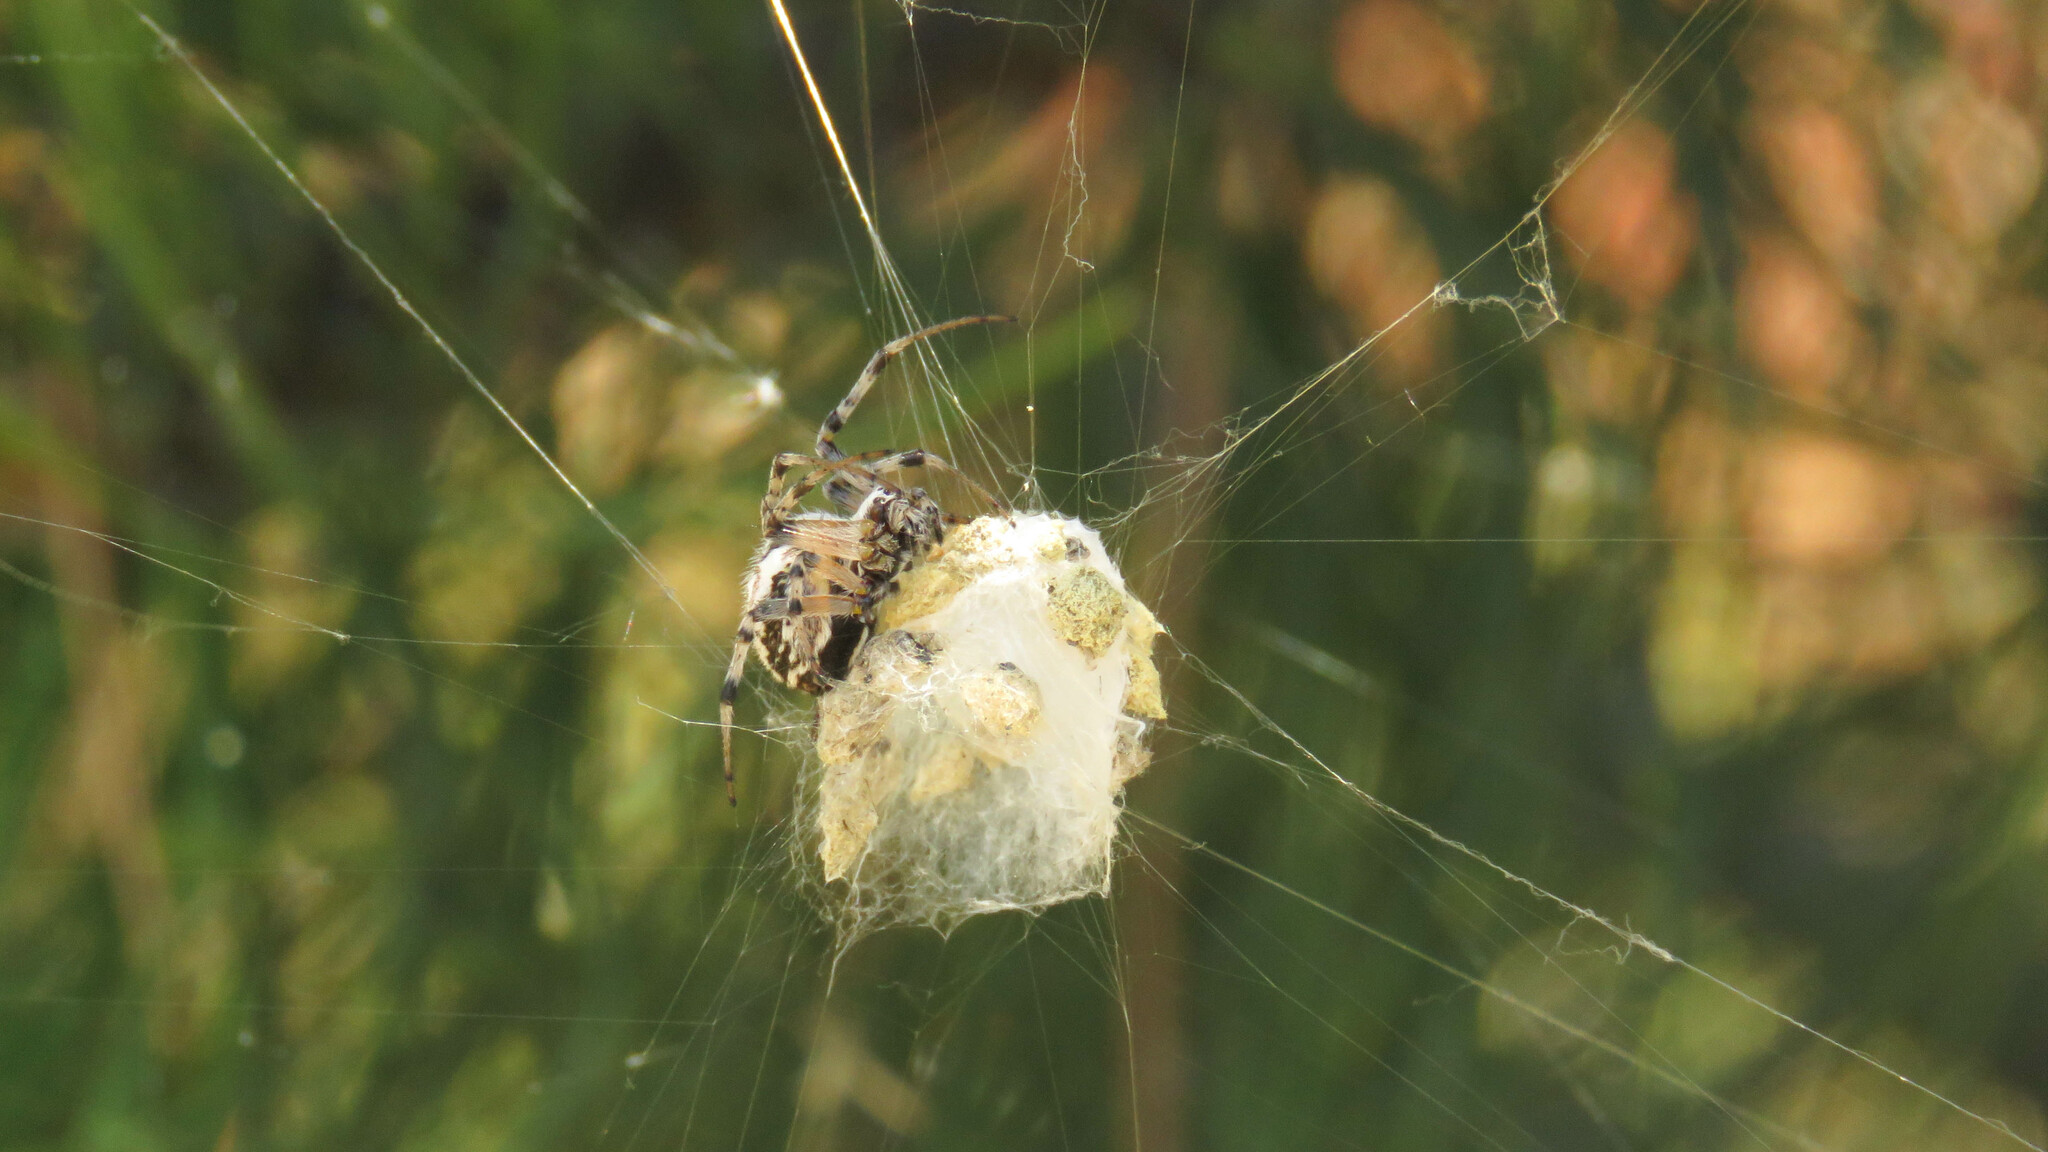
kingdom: Animalia
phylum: Arthropoda
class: Arachnida
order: Araneae
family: Araneidae
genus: Metepeira
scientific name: Metepeira
